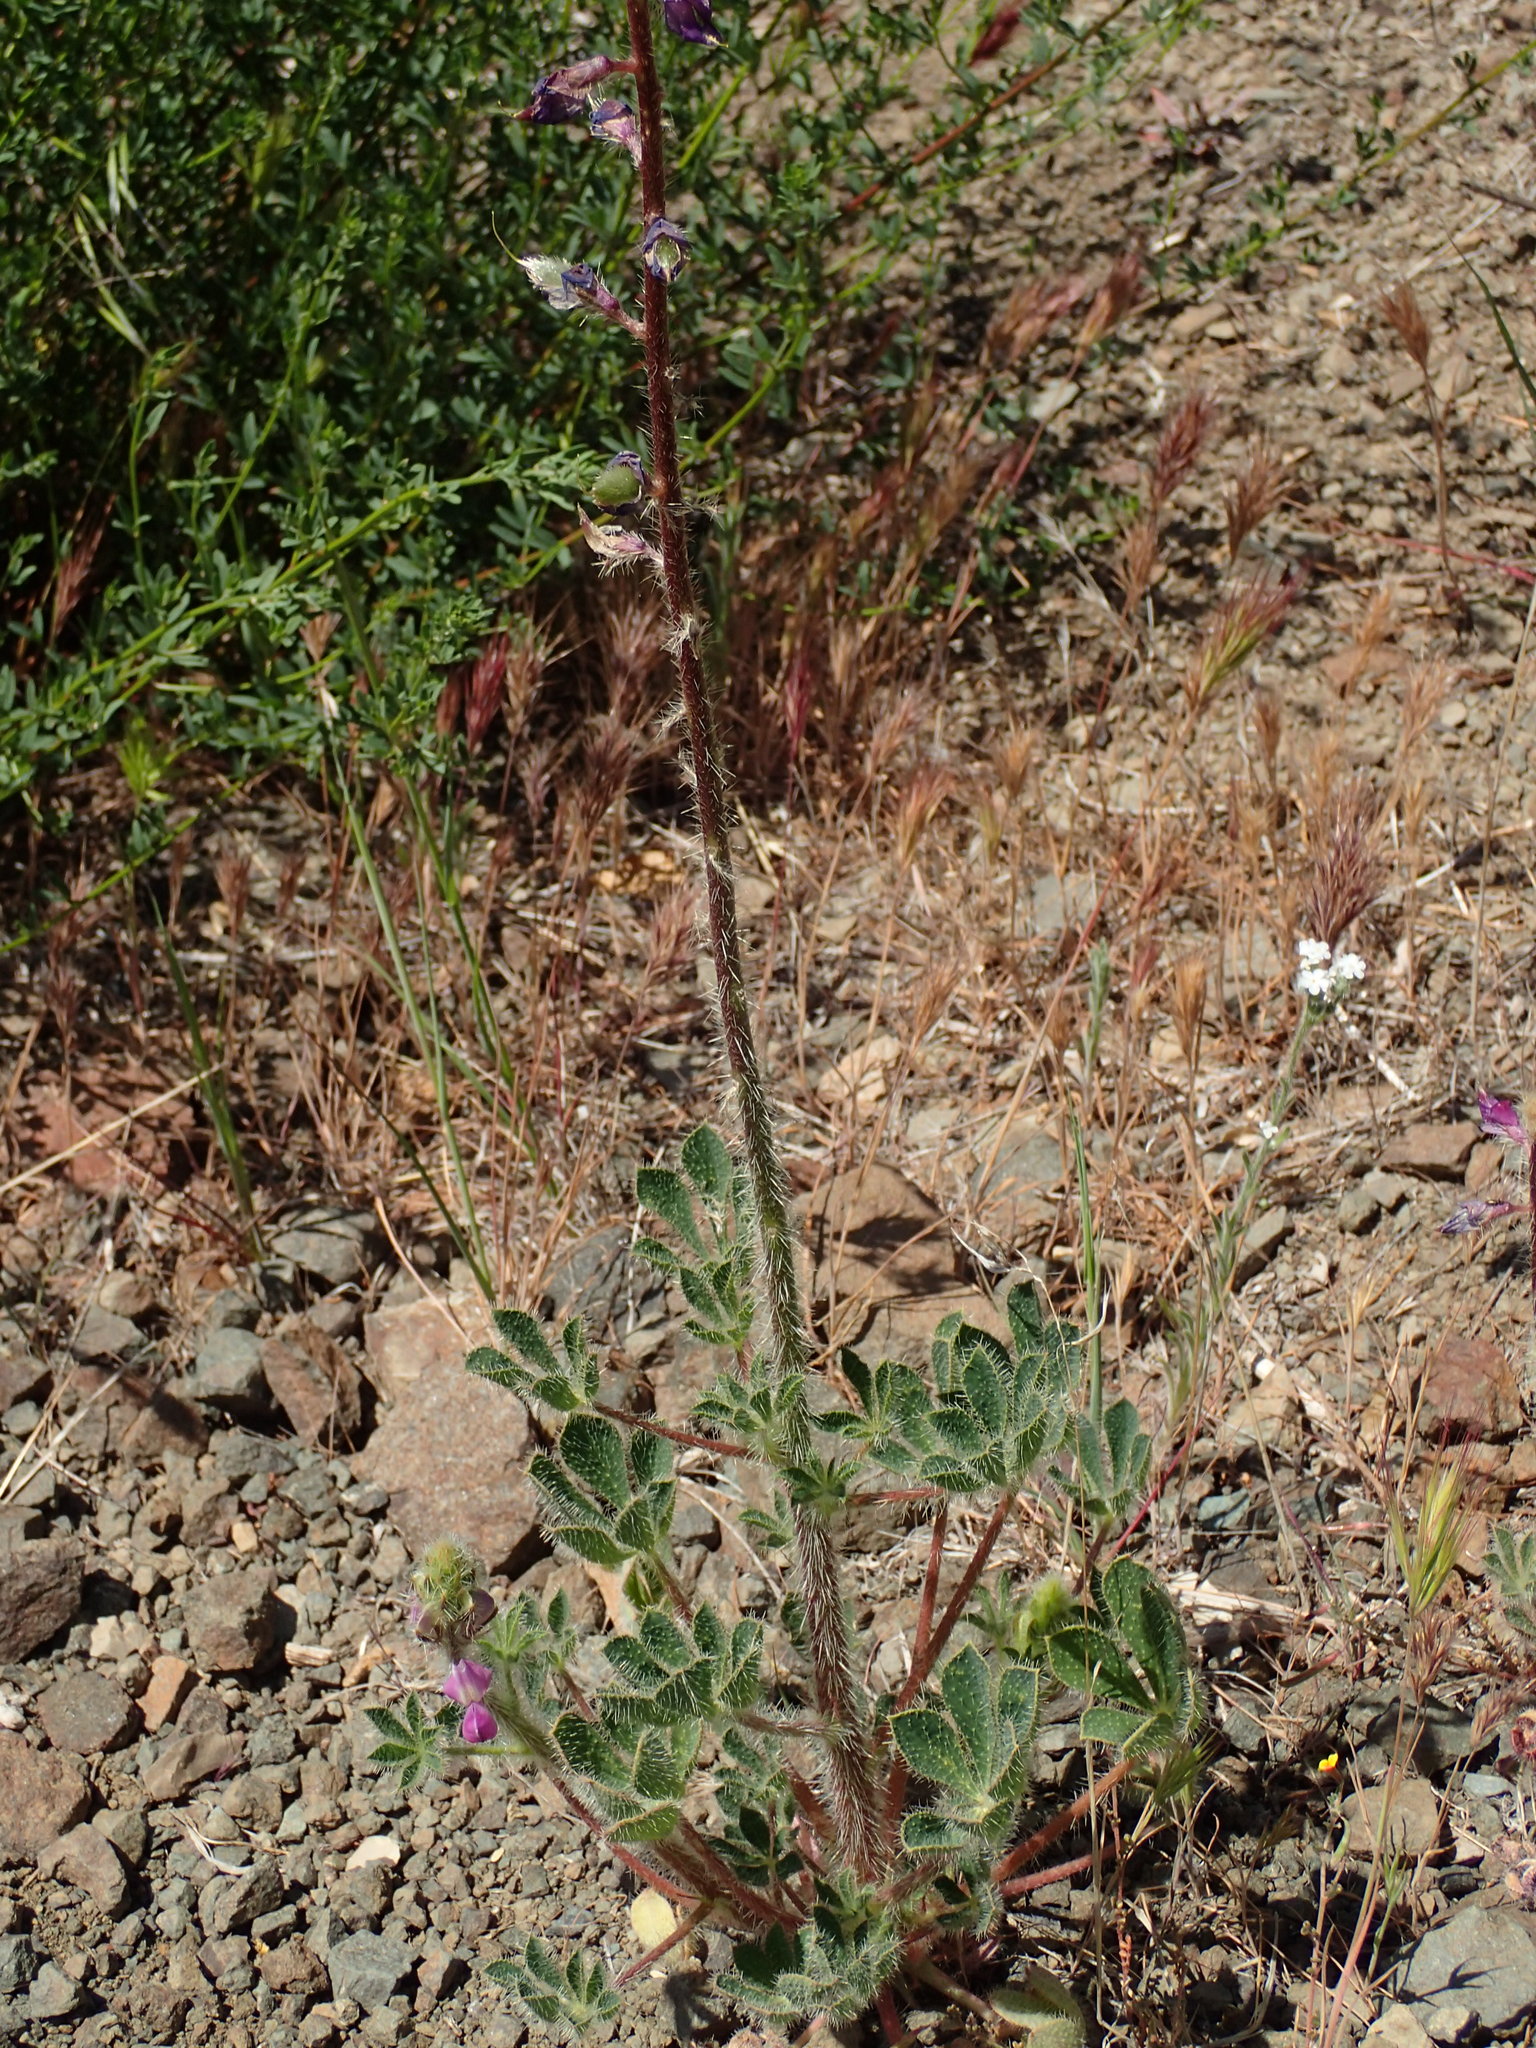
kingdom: Plantae
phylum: Tracheophyta
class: Magnoliopsida
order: Fabales
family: Fabaceae
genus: Lupinus
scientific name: Lupinus hirsutissimus
